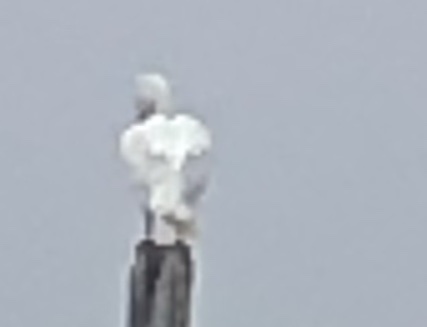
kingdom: Animalia
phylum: Chordata
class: Aves
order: Pelecaniformes
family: Pelecanidae
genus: Pelecanus
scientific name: Pelecanus erythrorhynchos
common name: American white pelican
